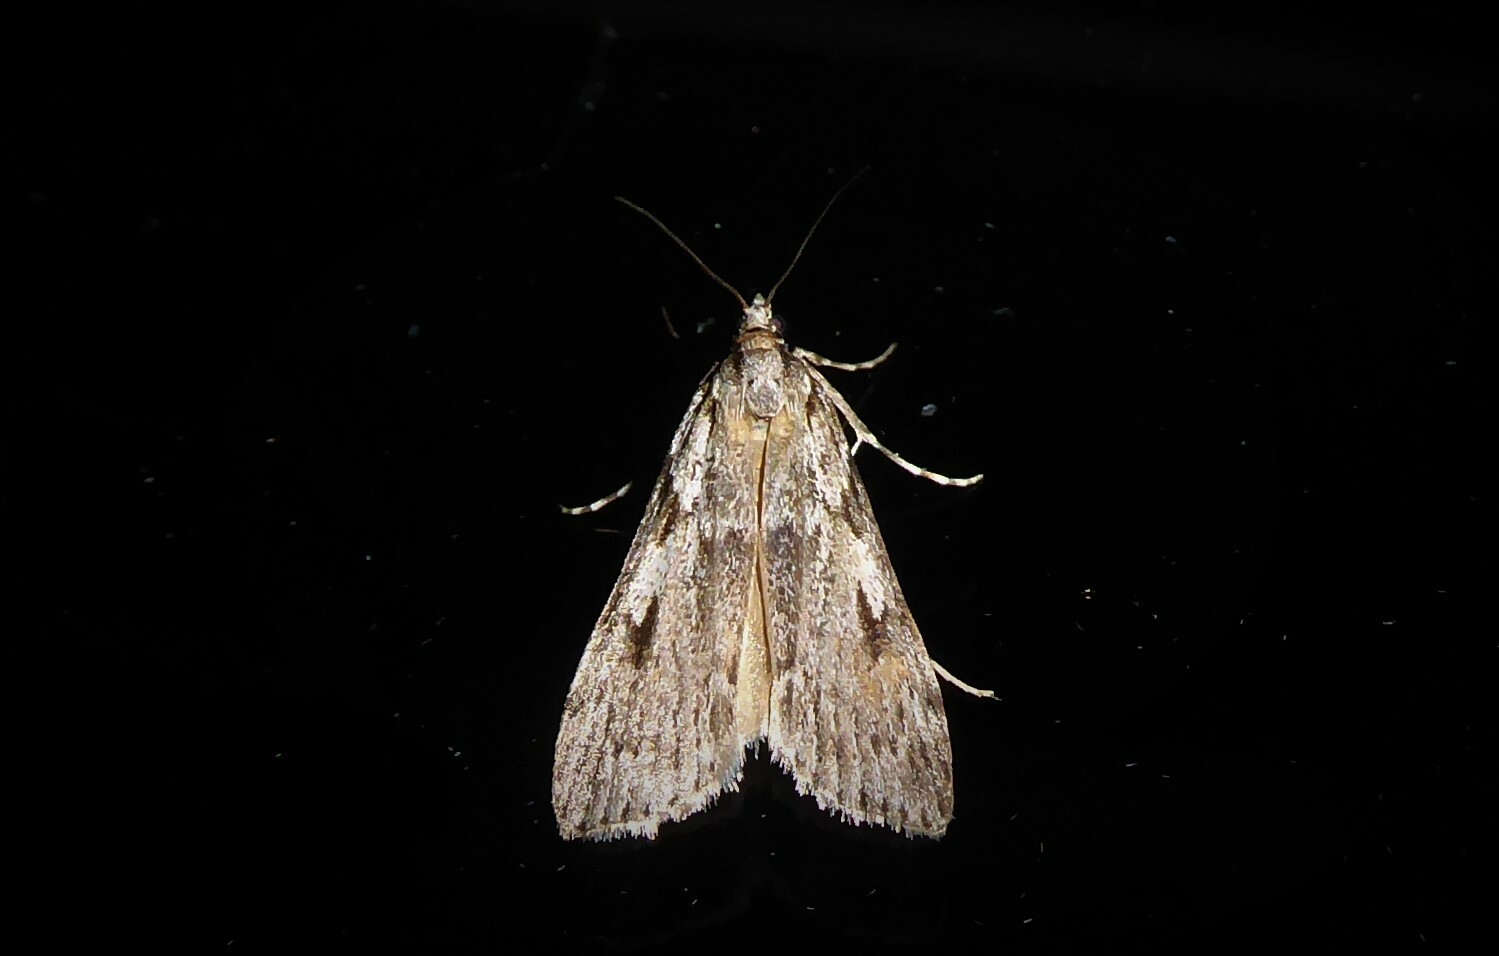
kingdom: Animalia
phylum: Arthropoda
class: Insecta
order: Lepidoptera
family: Crambidae
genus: Scoparia
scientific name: Scoparia halopis
